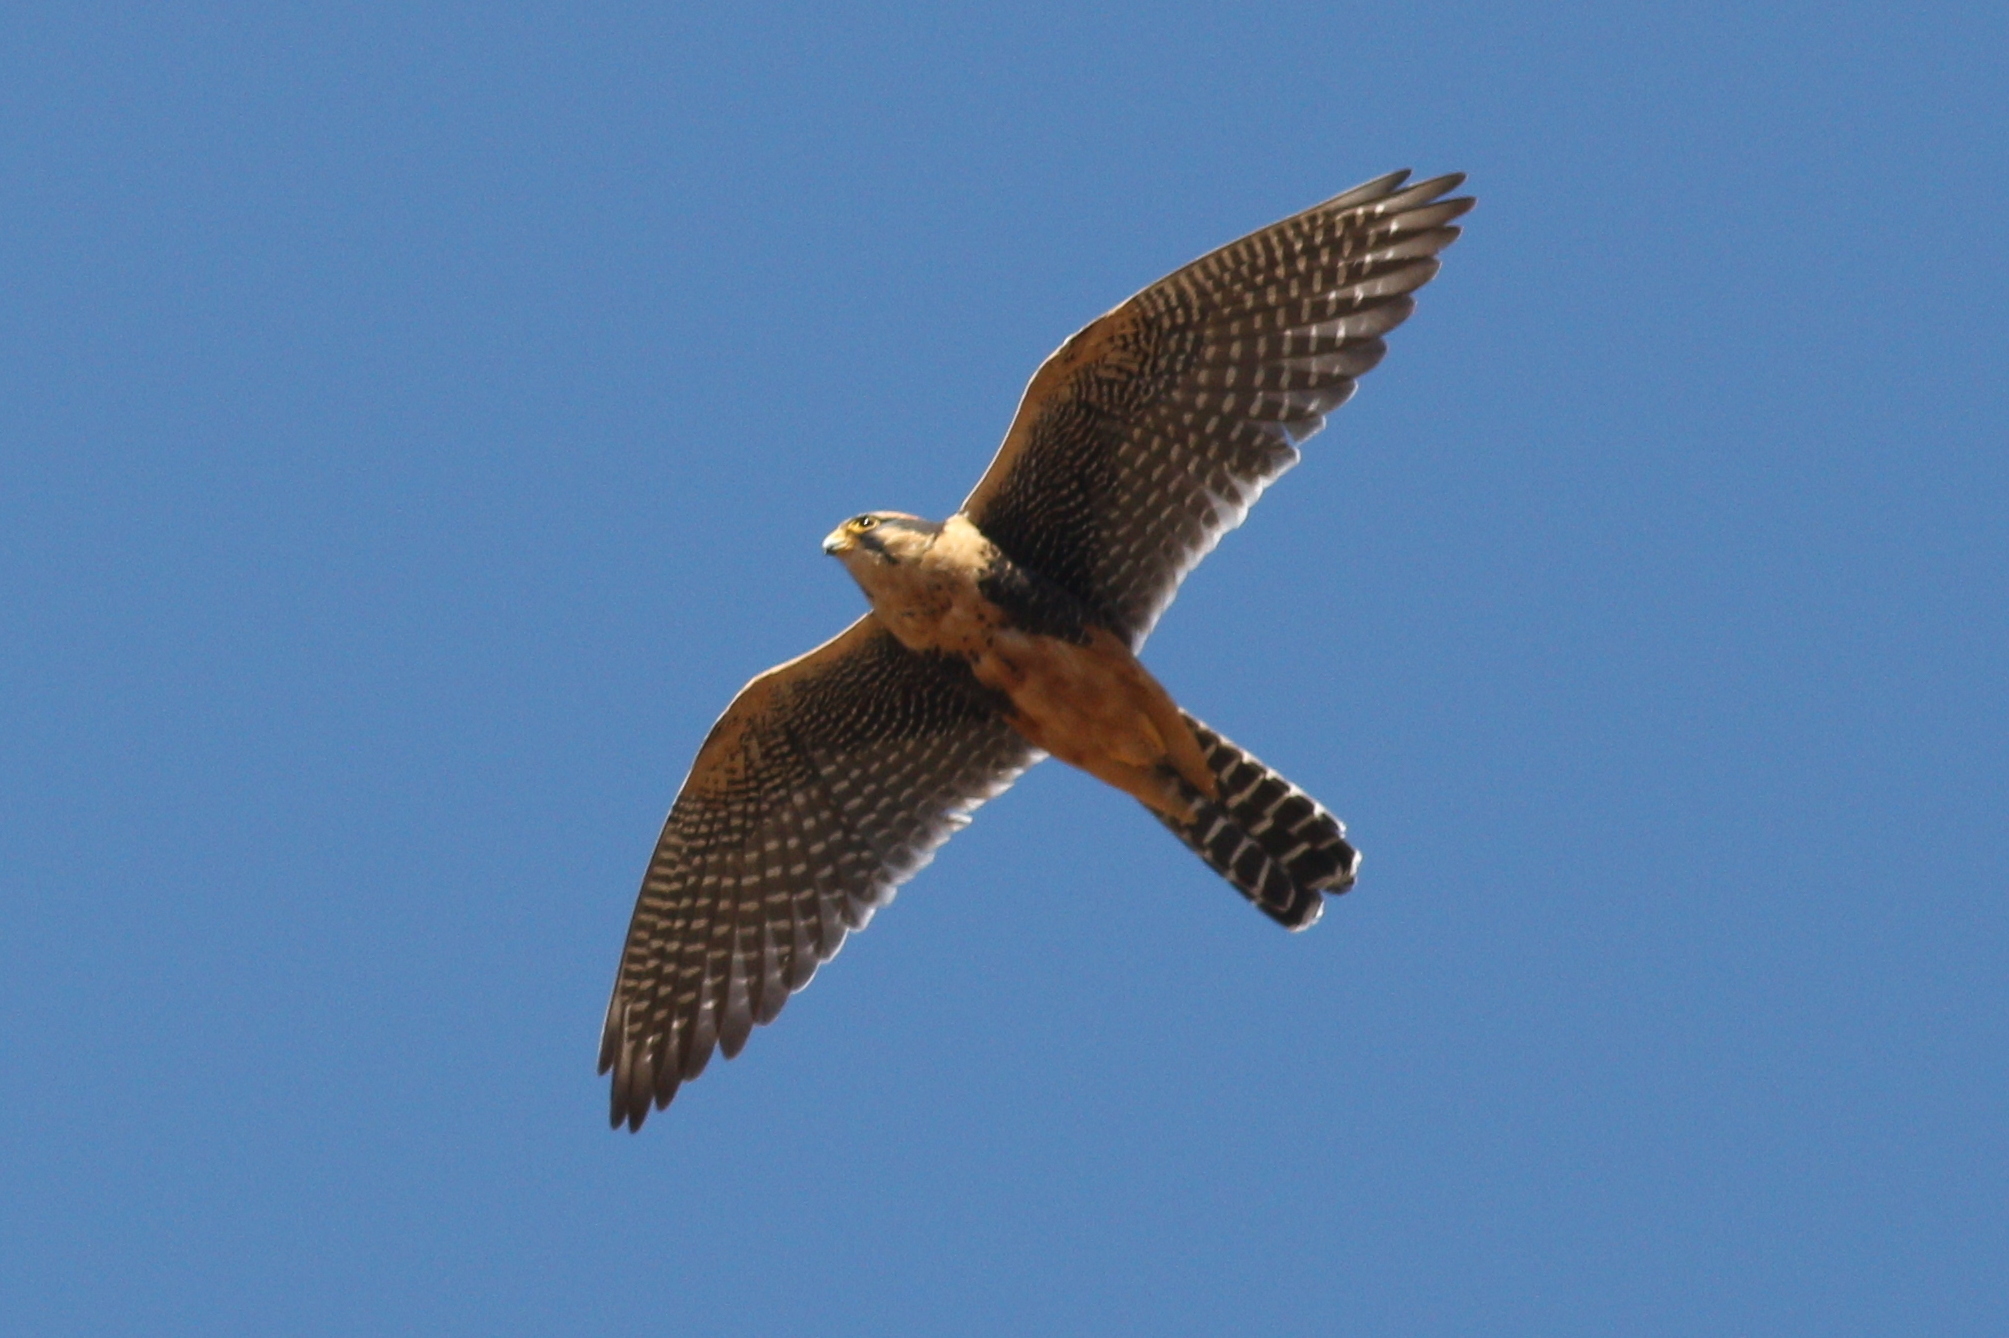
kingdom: Animalia
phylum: Chordata
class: Aves
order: Falconiformes
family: Falconidae
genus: Falco
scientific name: Falco femoralis
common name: Aplomado falcon
